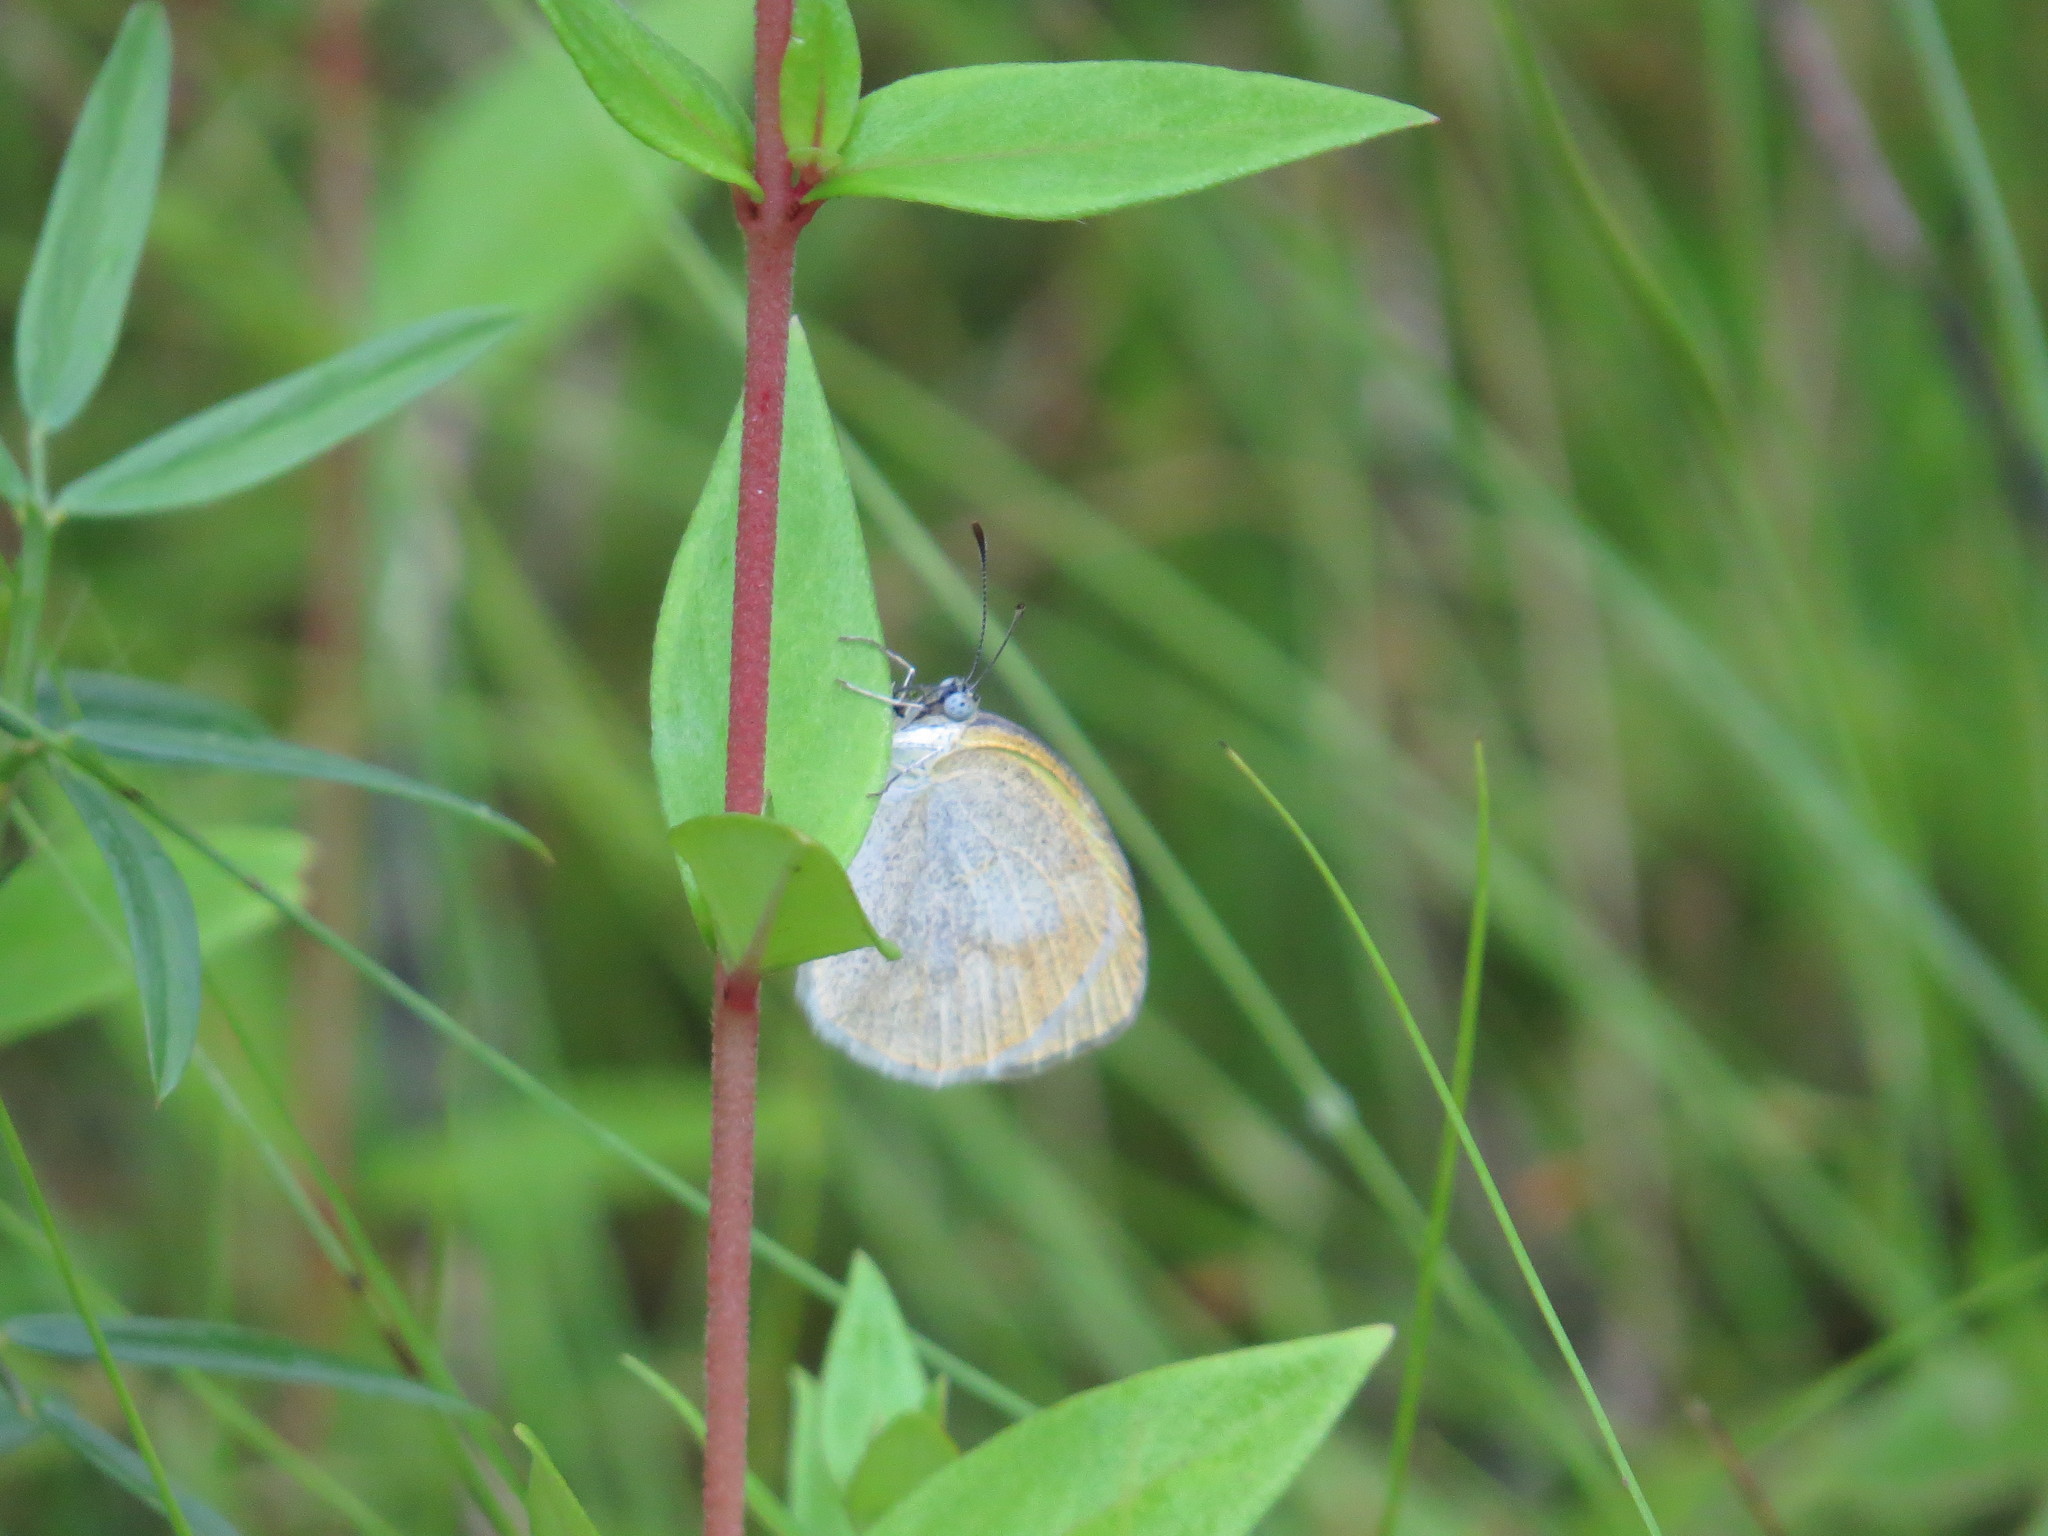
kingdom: Animalia
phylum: Arthropoda
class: Insecta
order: Lepidoptera
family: Pieridae
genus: Eurema
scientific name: Eurema elathea
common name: Banded yellow
